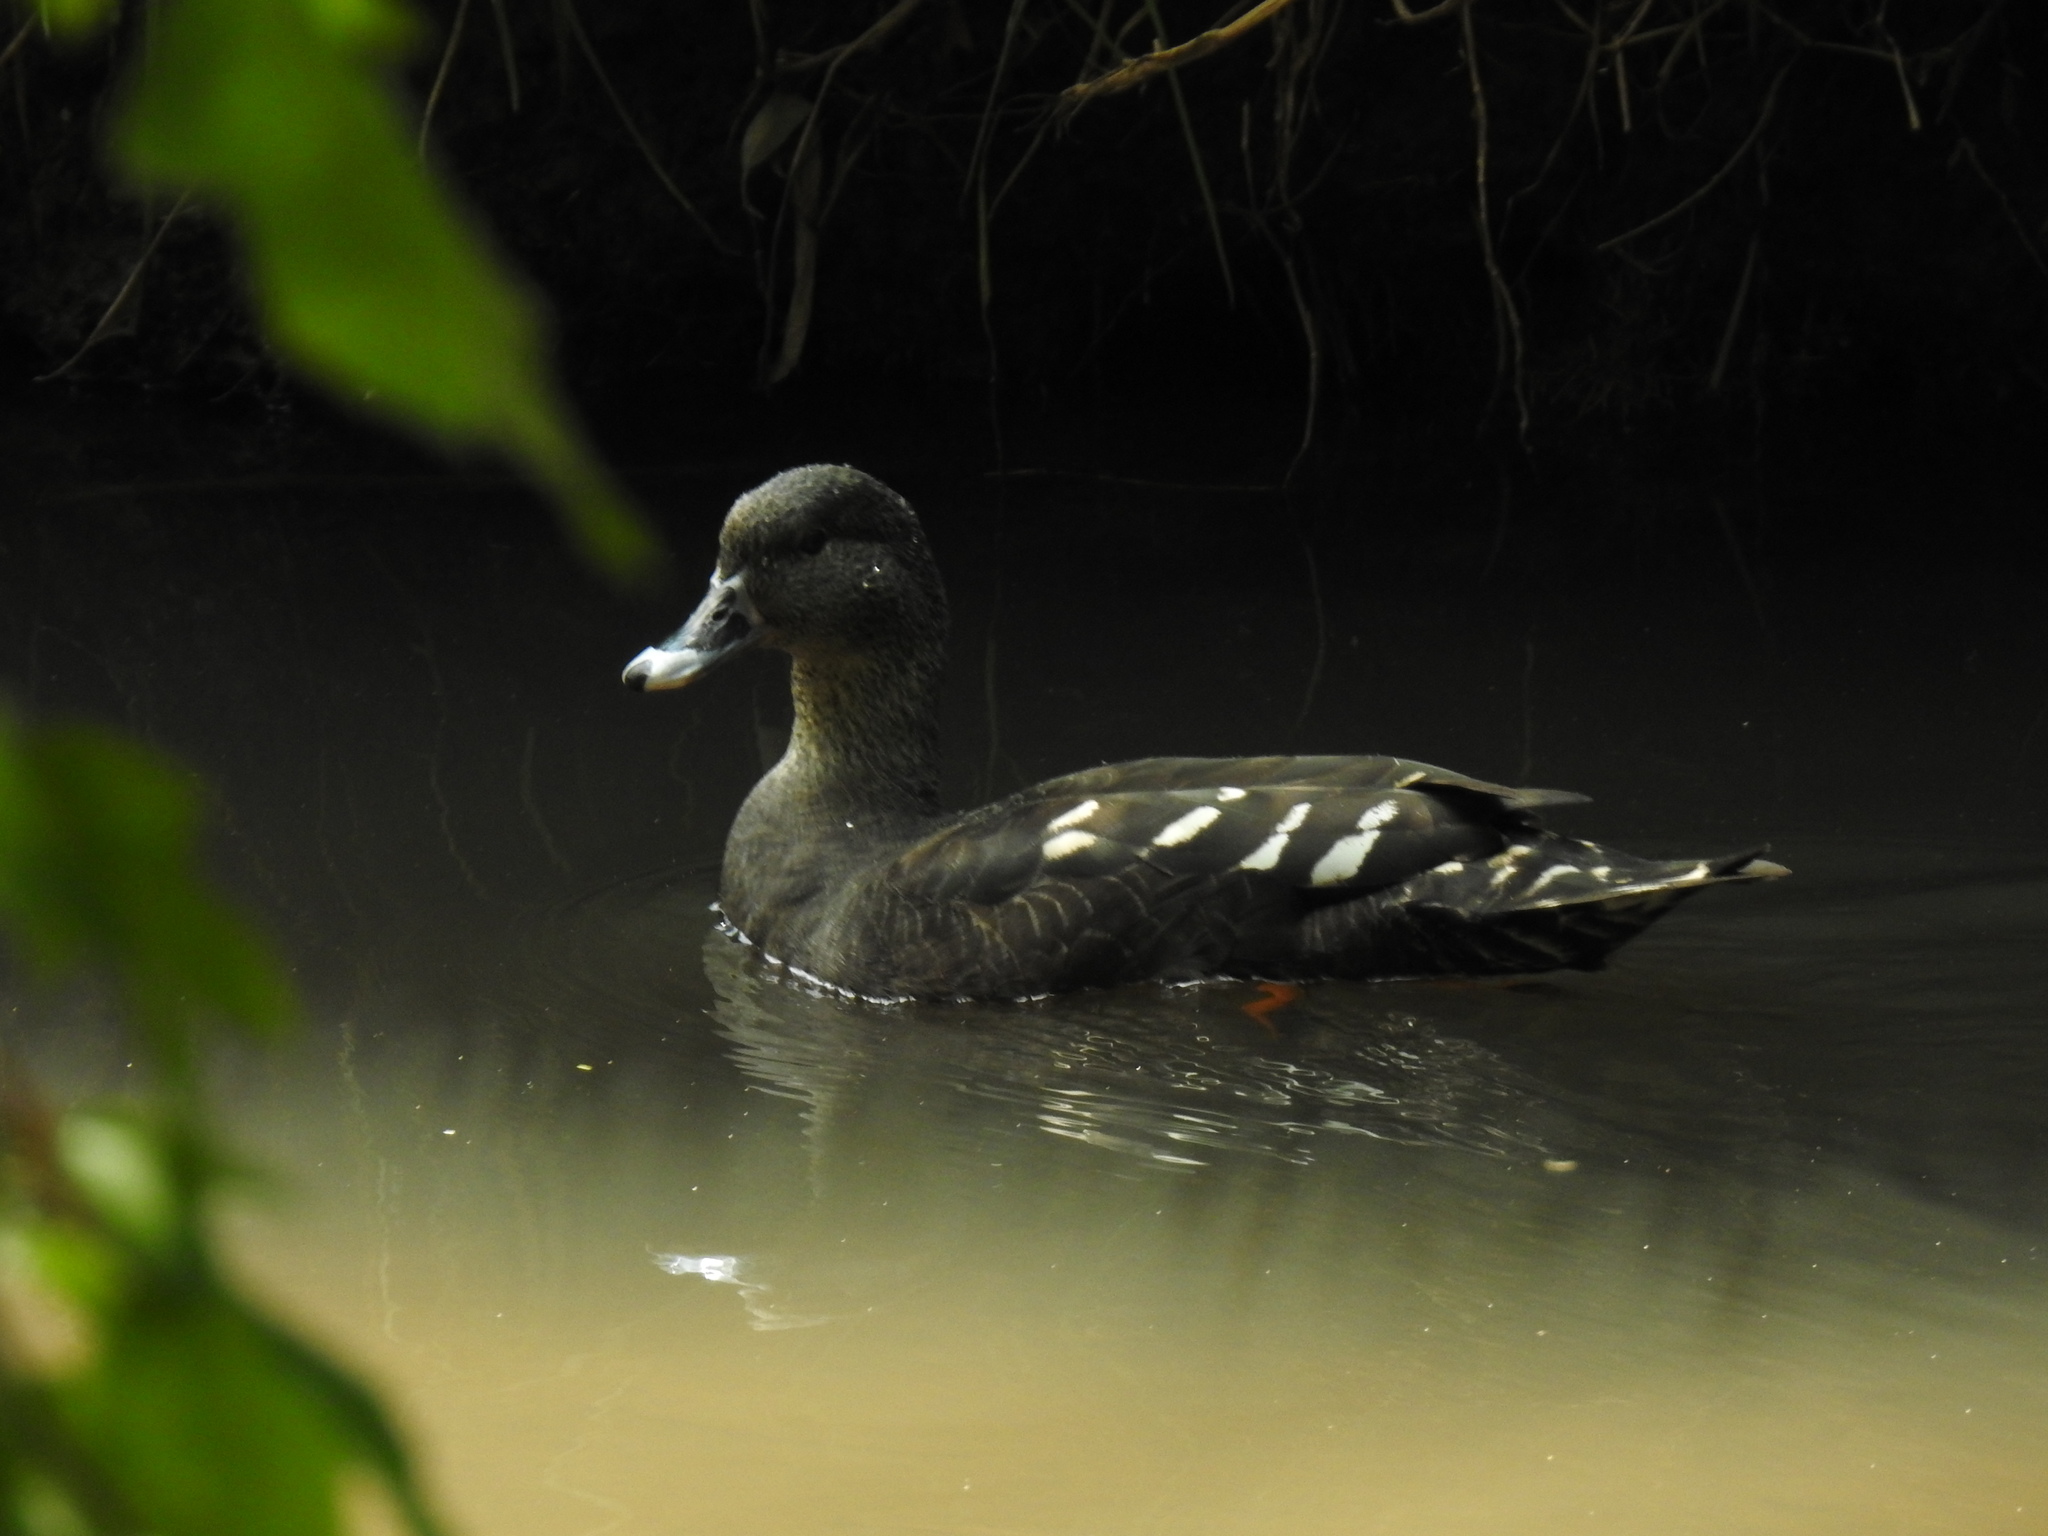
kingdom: Animalia
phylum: Chordata
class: Aves
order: Anseriformes
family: Anatidae
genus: Anas
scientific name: Anas sparsa
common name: African black duck
